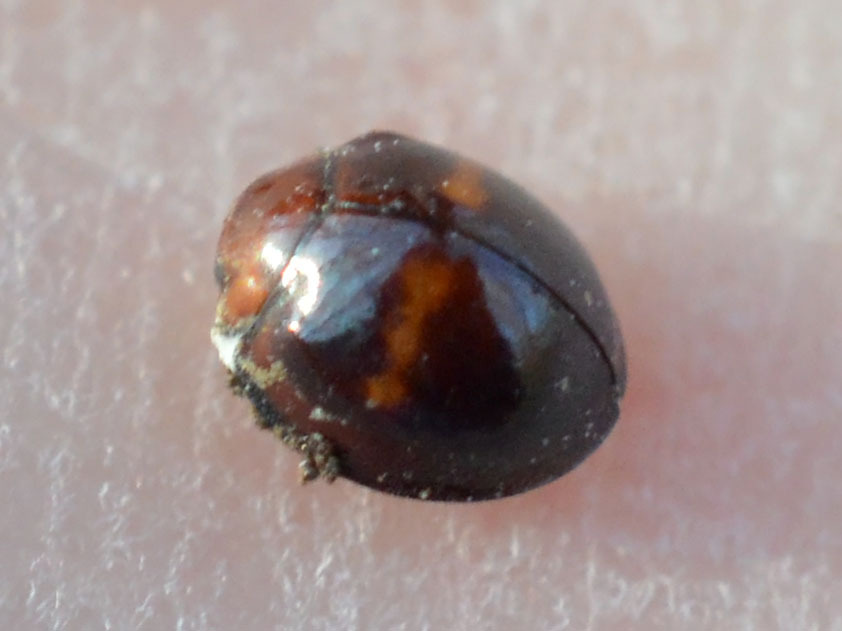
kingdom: Animalia
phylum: Arthropoda
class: Insecta
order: Coleoptera
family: Coccinellidae
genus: Chilocorus
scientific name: Chilocorus bipustulatus
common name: Heather ladybird
